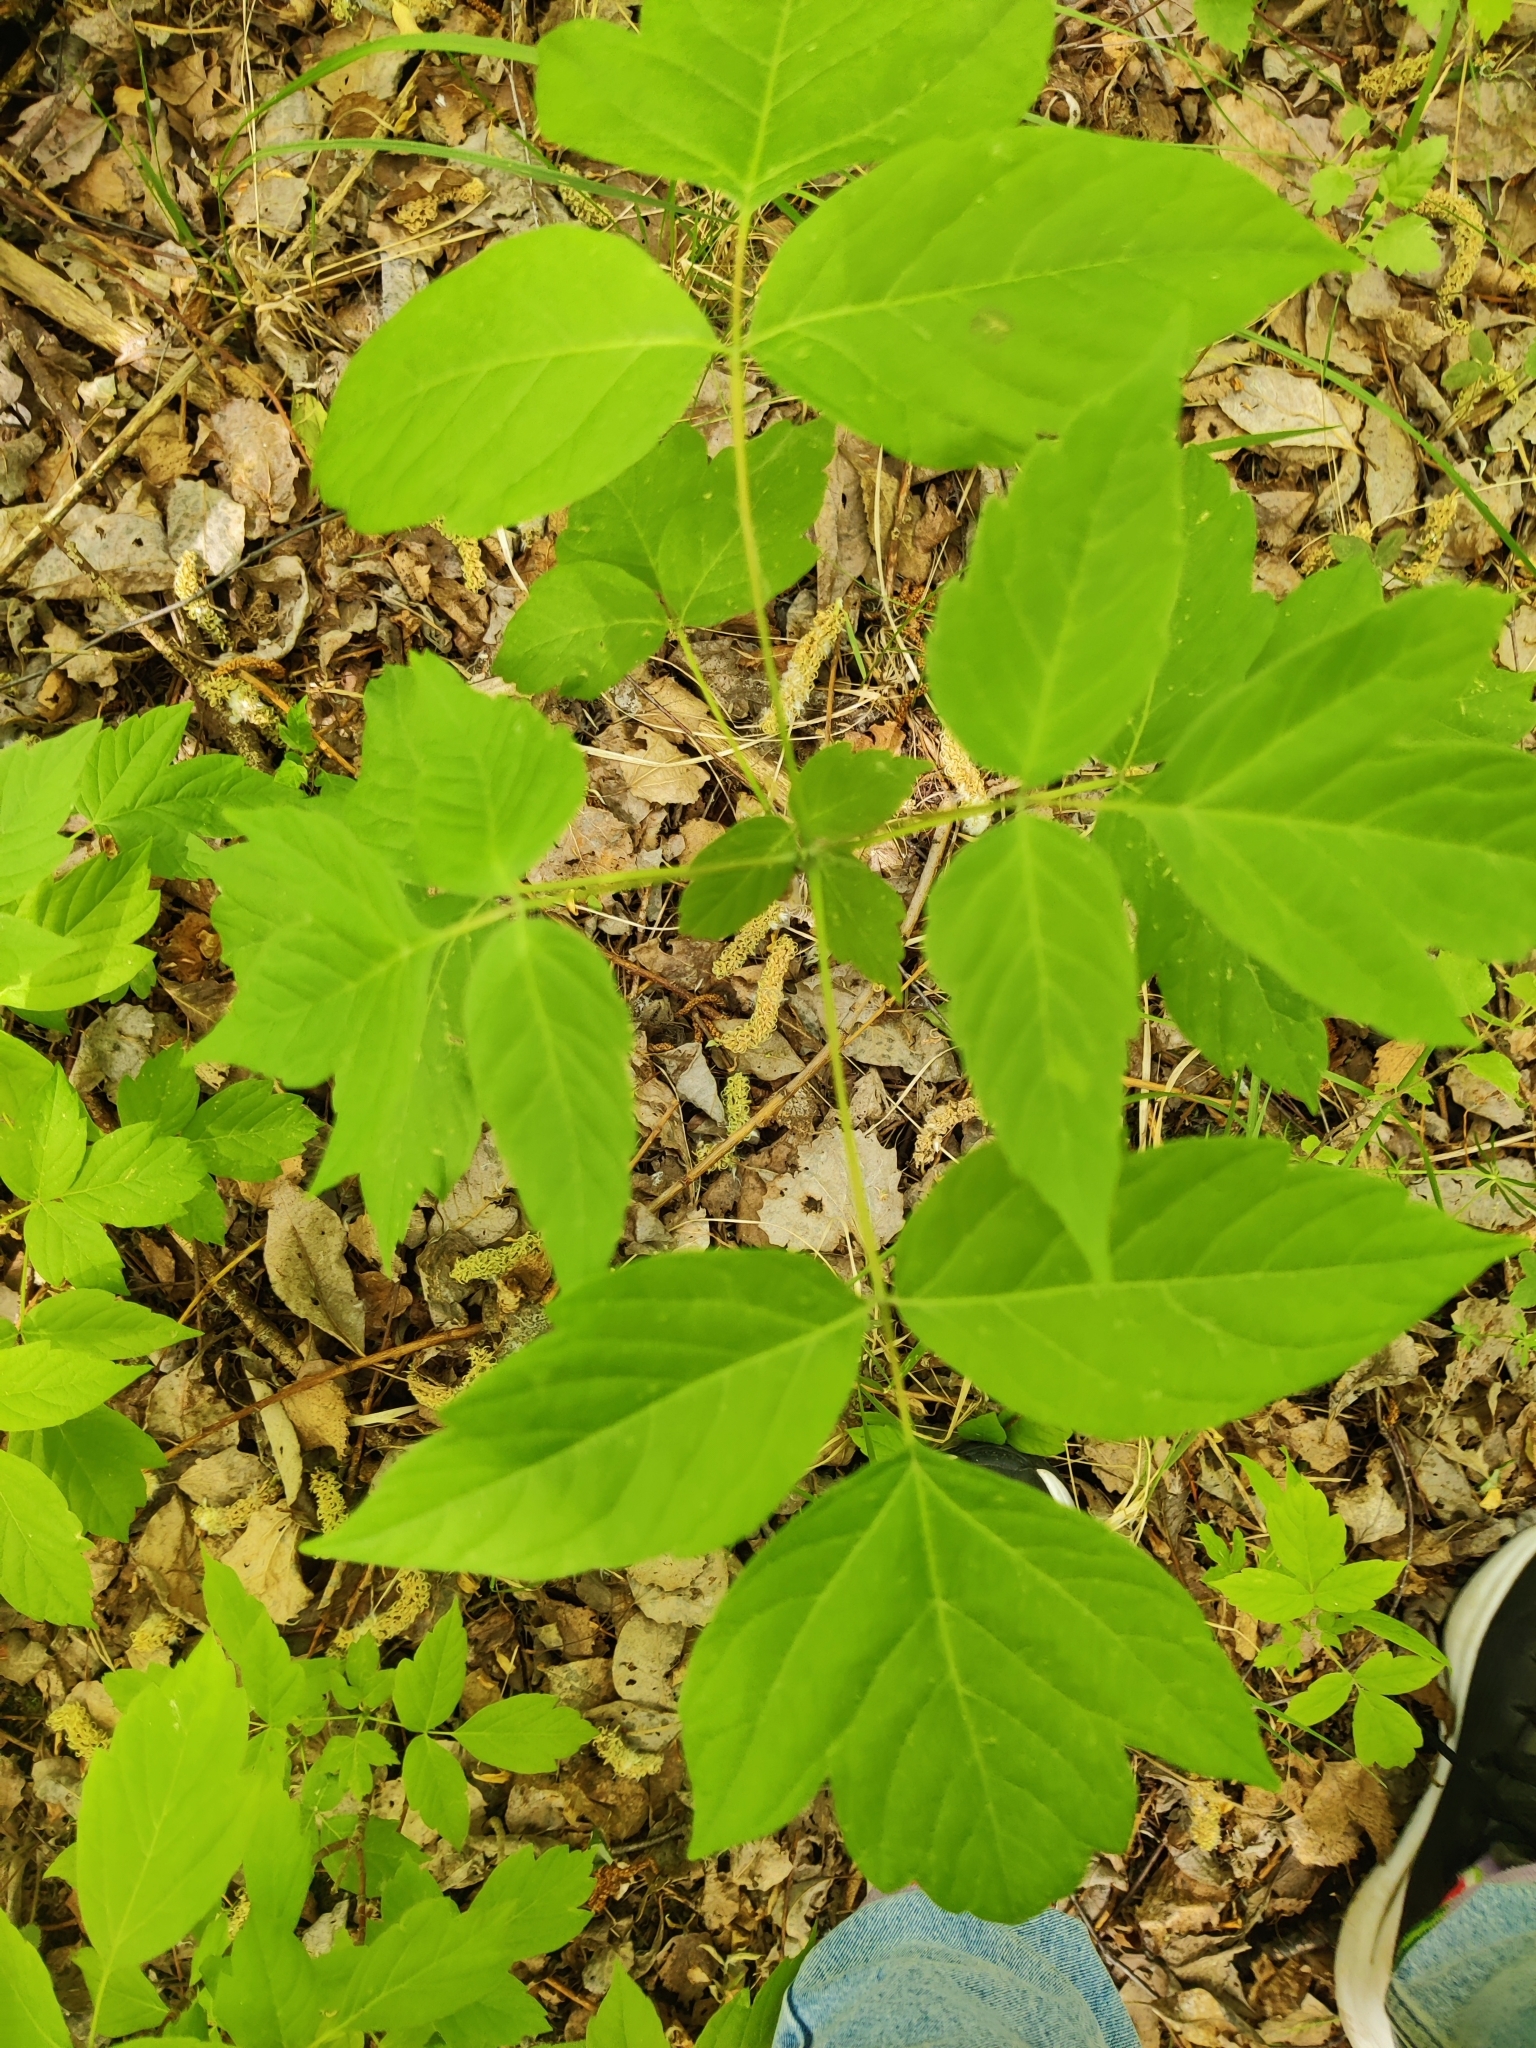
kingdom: Plantae
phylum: Tracheophyta
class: Magnoliopsida
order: Sapindales
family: Sapindaceae
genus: Acer
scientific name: Acer negundo
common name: Ashleaf maple
